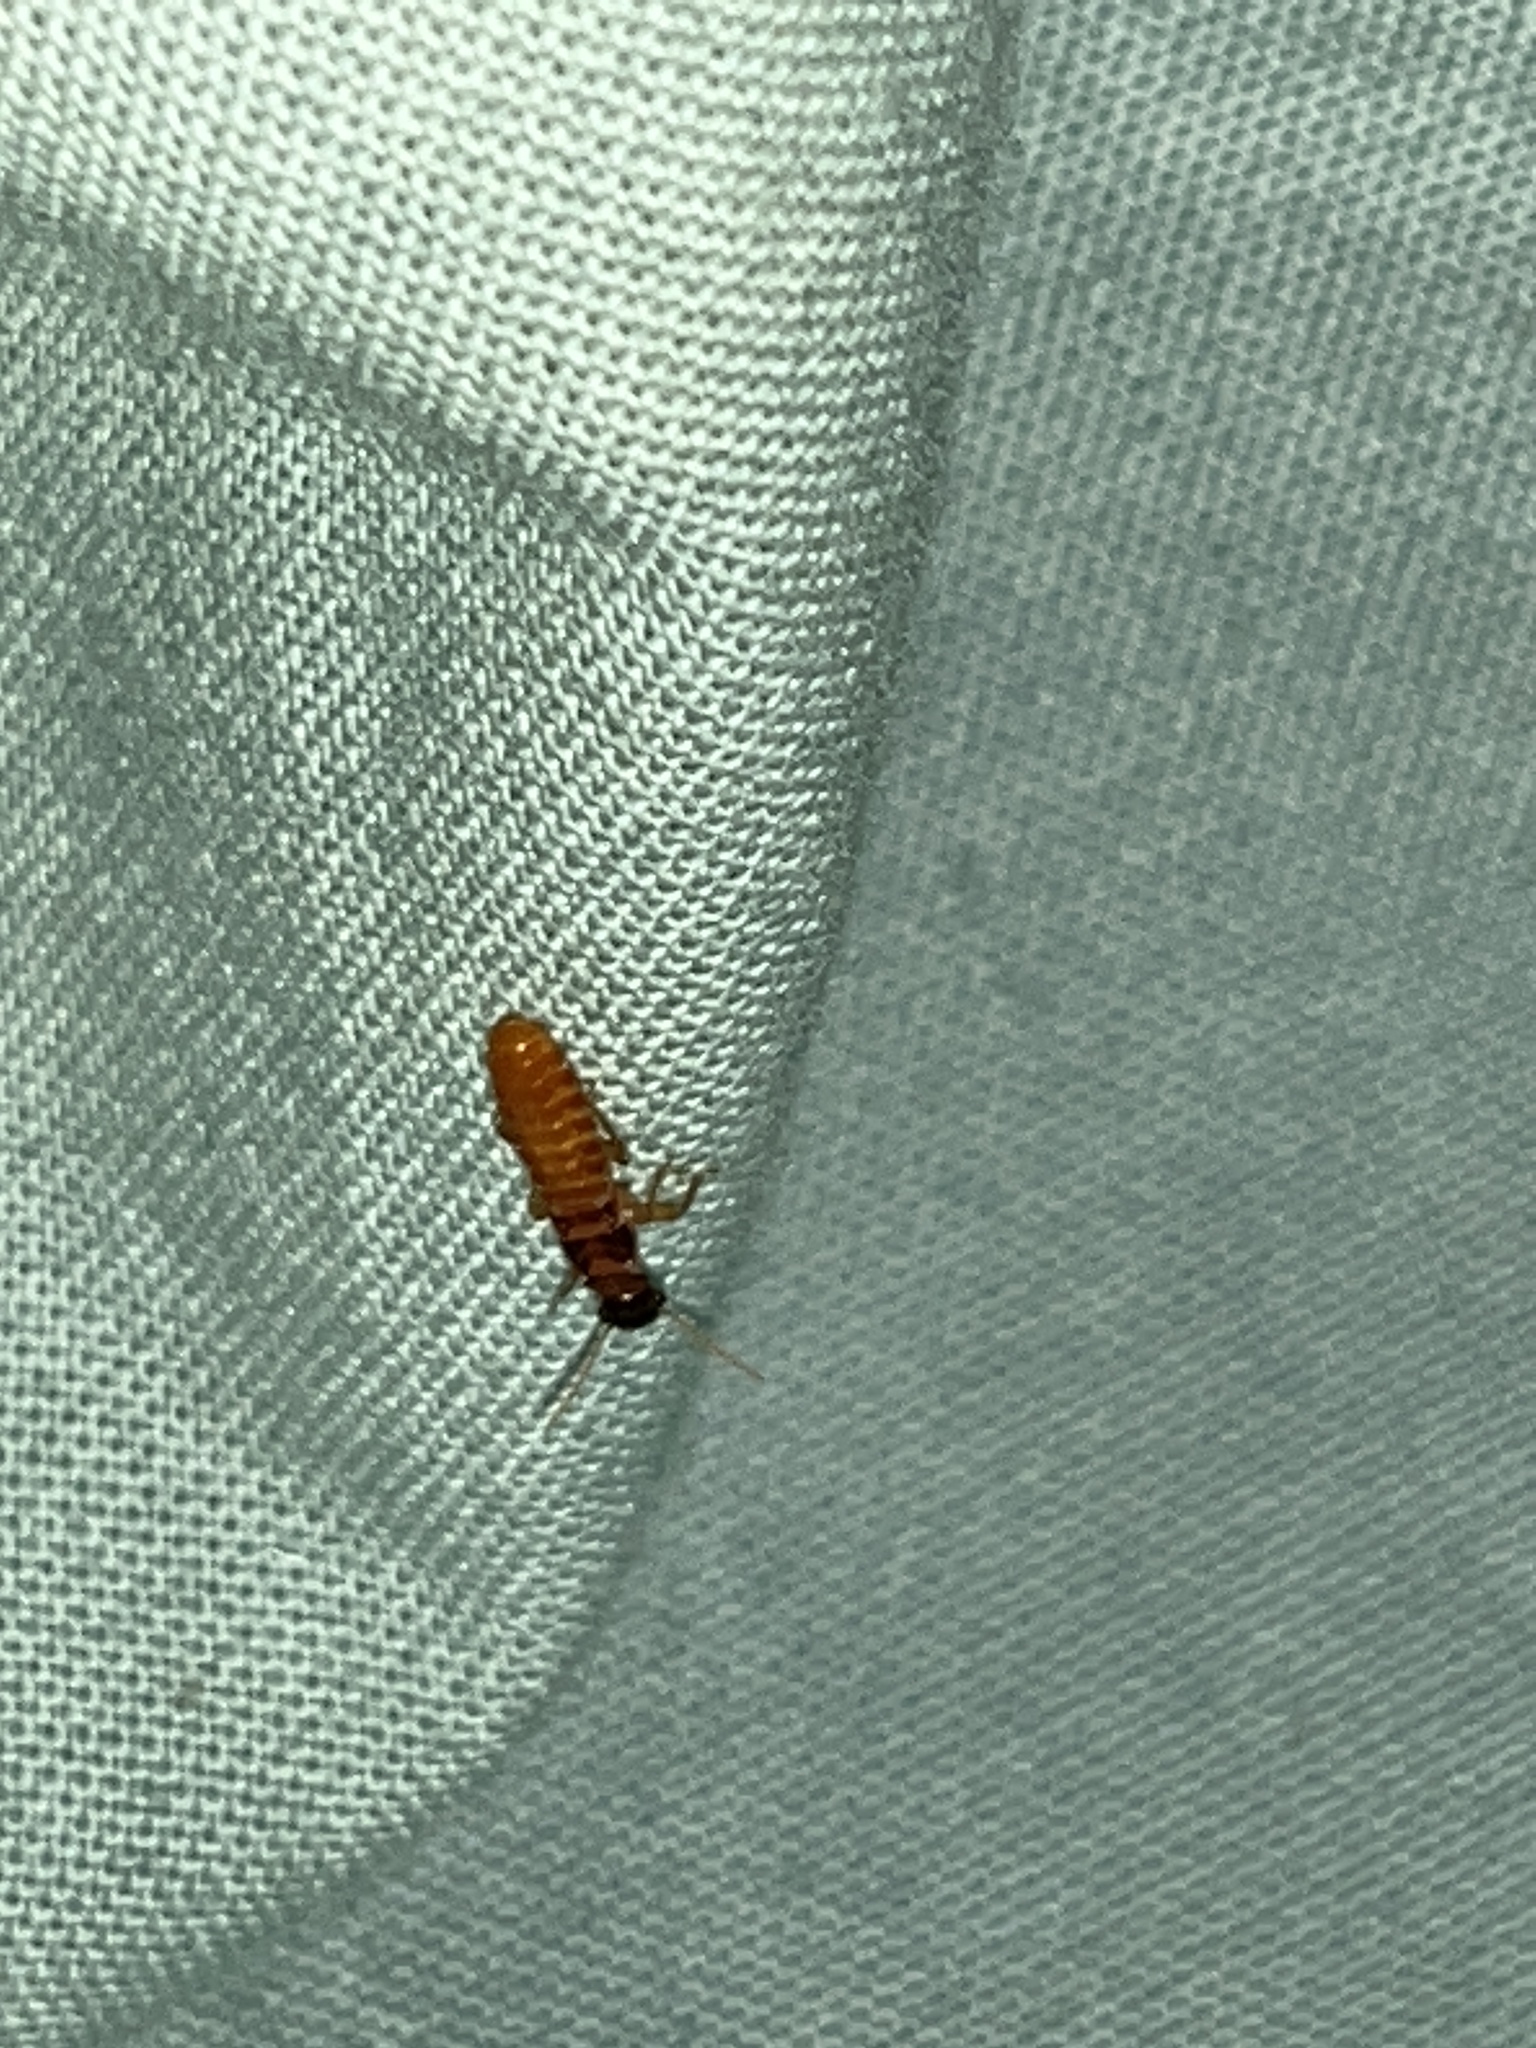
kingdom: Animalia
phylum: Arthropoda
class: Insecta
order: Blattodea
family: Rhinotermitidae
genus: Coptotermes
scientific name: Coptotermes formosanus
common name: Formosan termite
